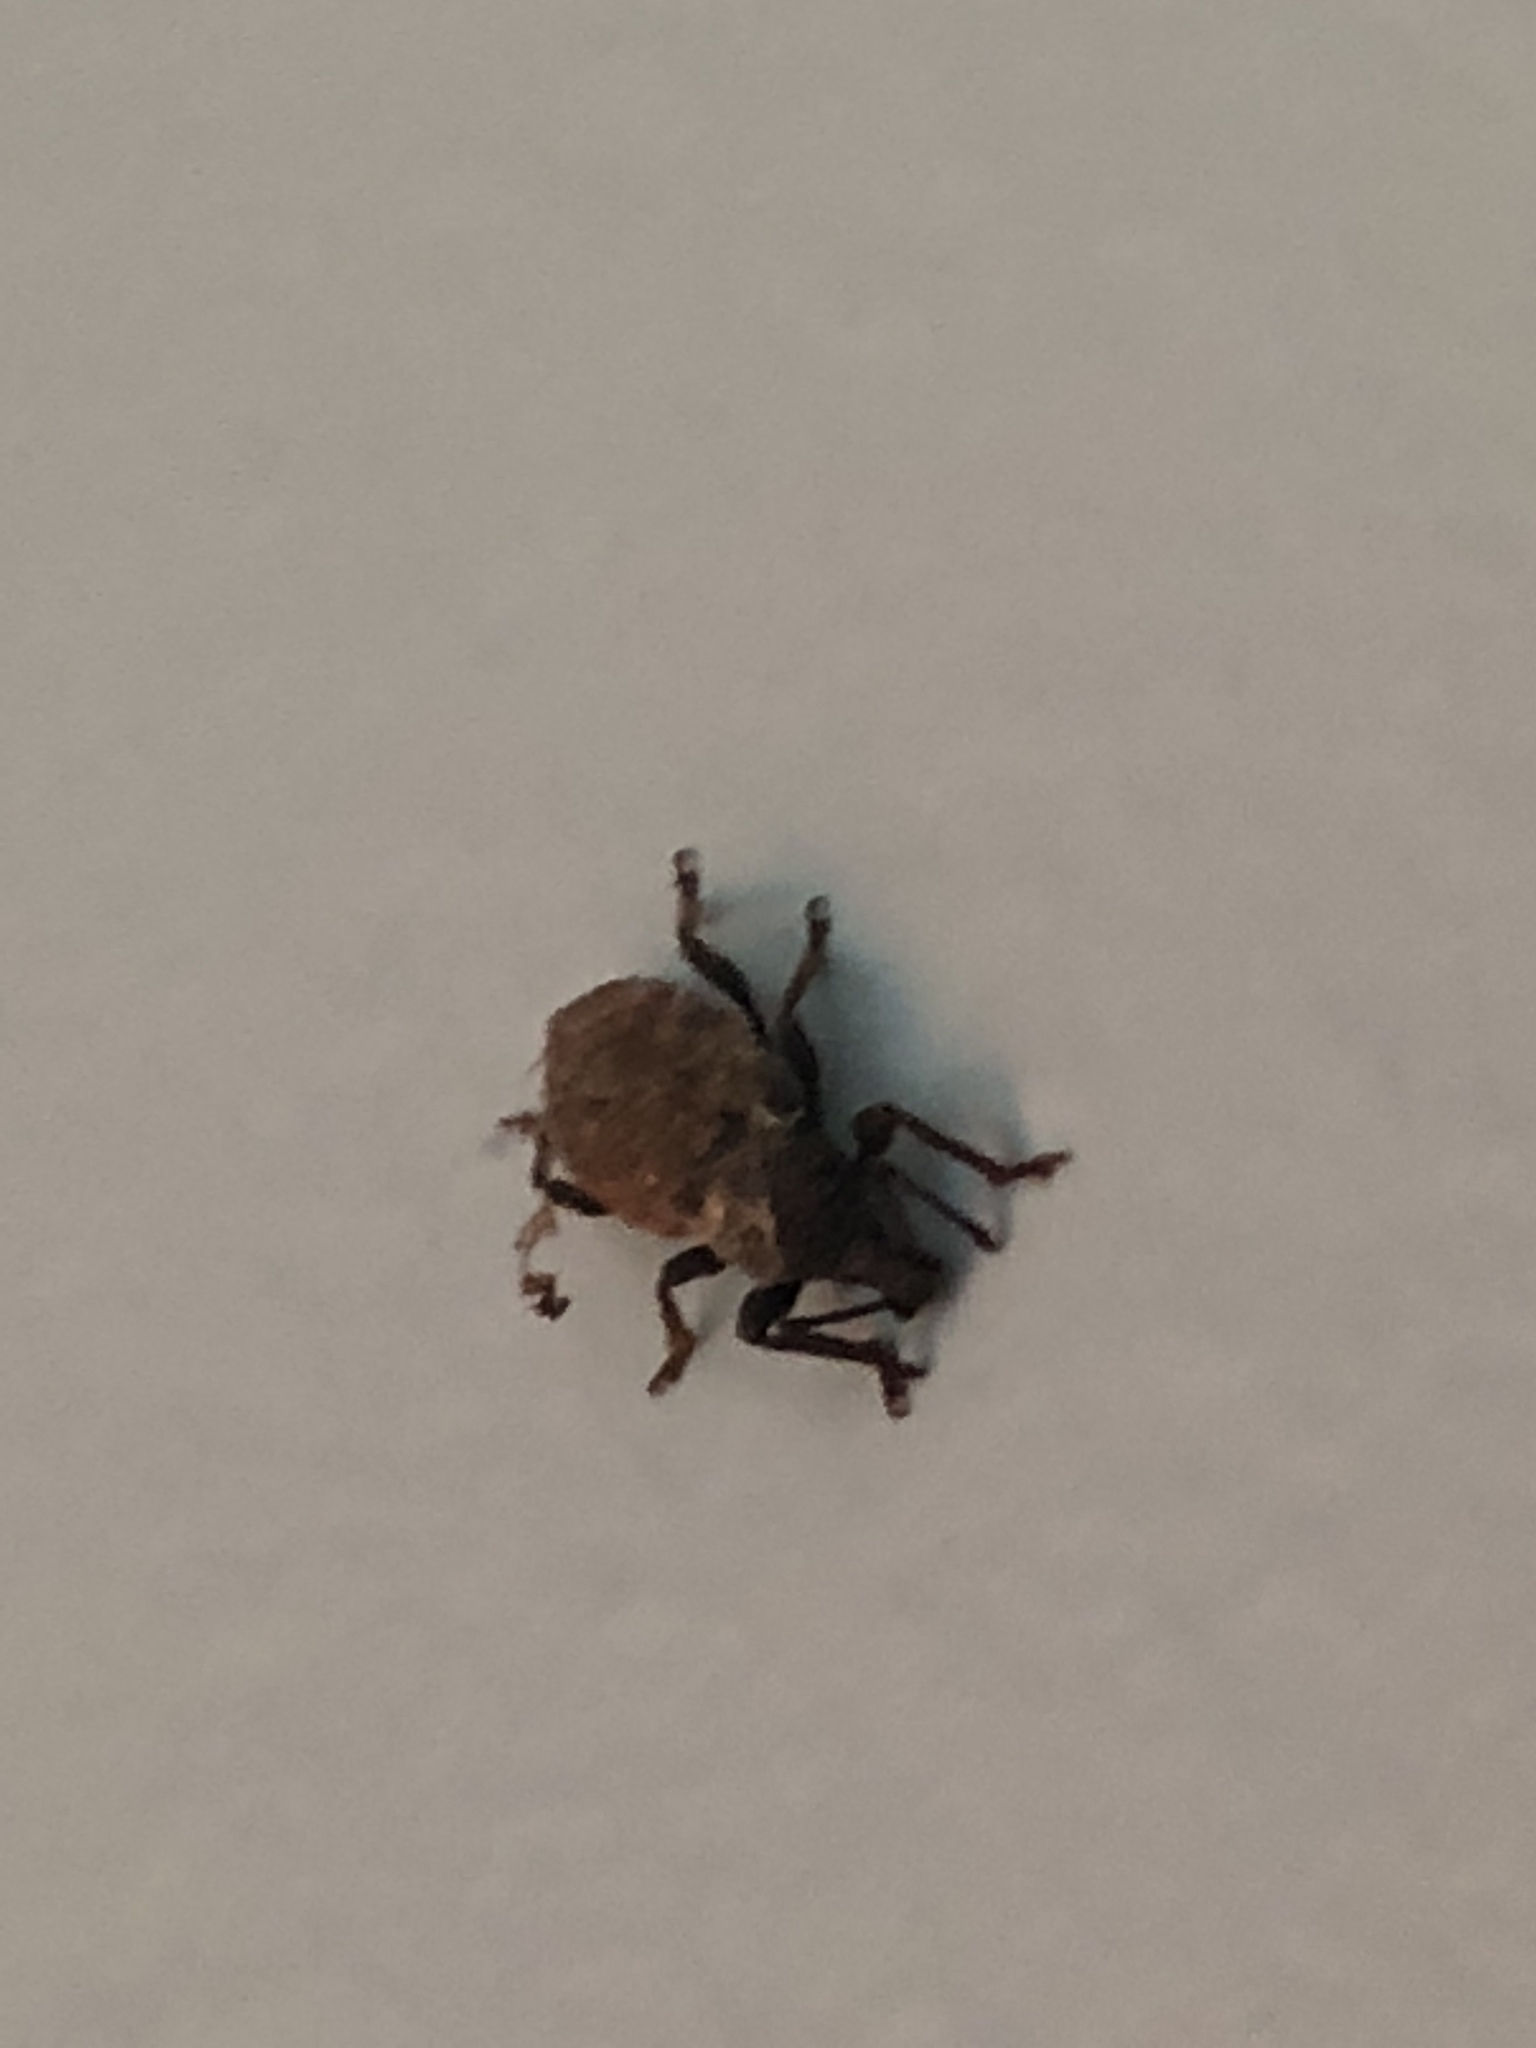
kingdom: Animalia
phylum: Arthropoda
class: Insecta
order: Coleoptera
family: Curculionidae
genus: Otiorhynchus
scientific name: Otiorhynchus raucus
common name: Weevil
